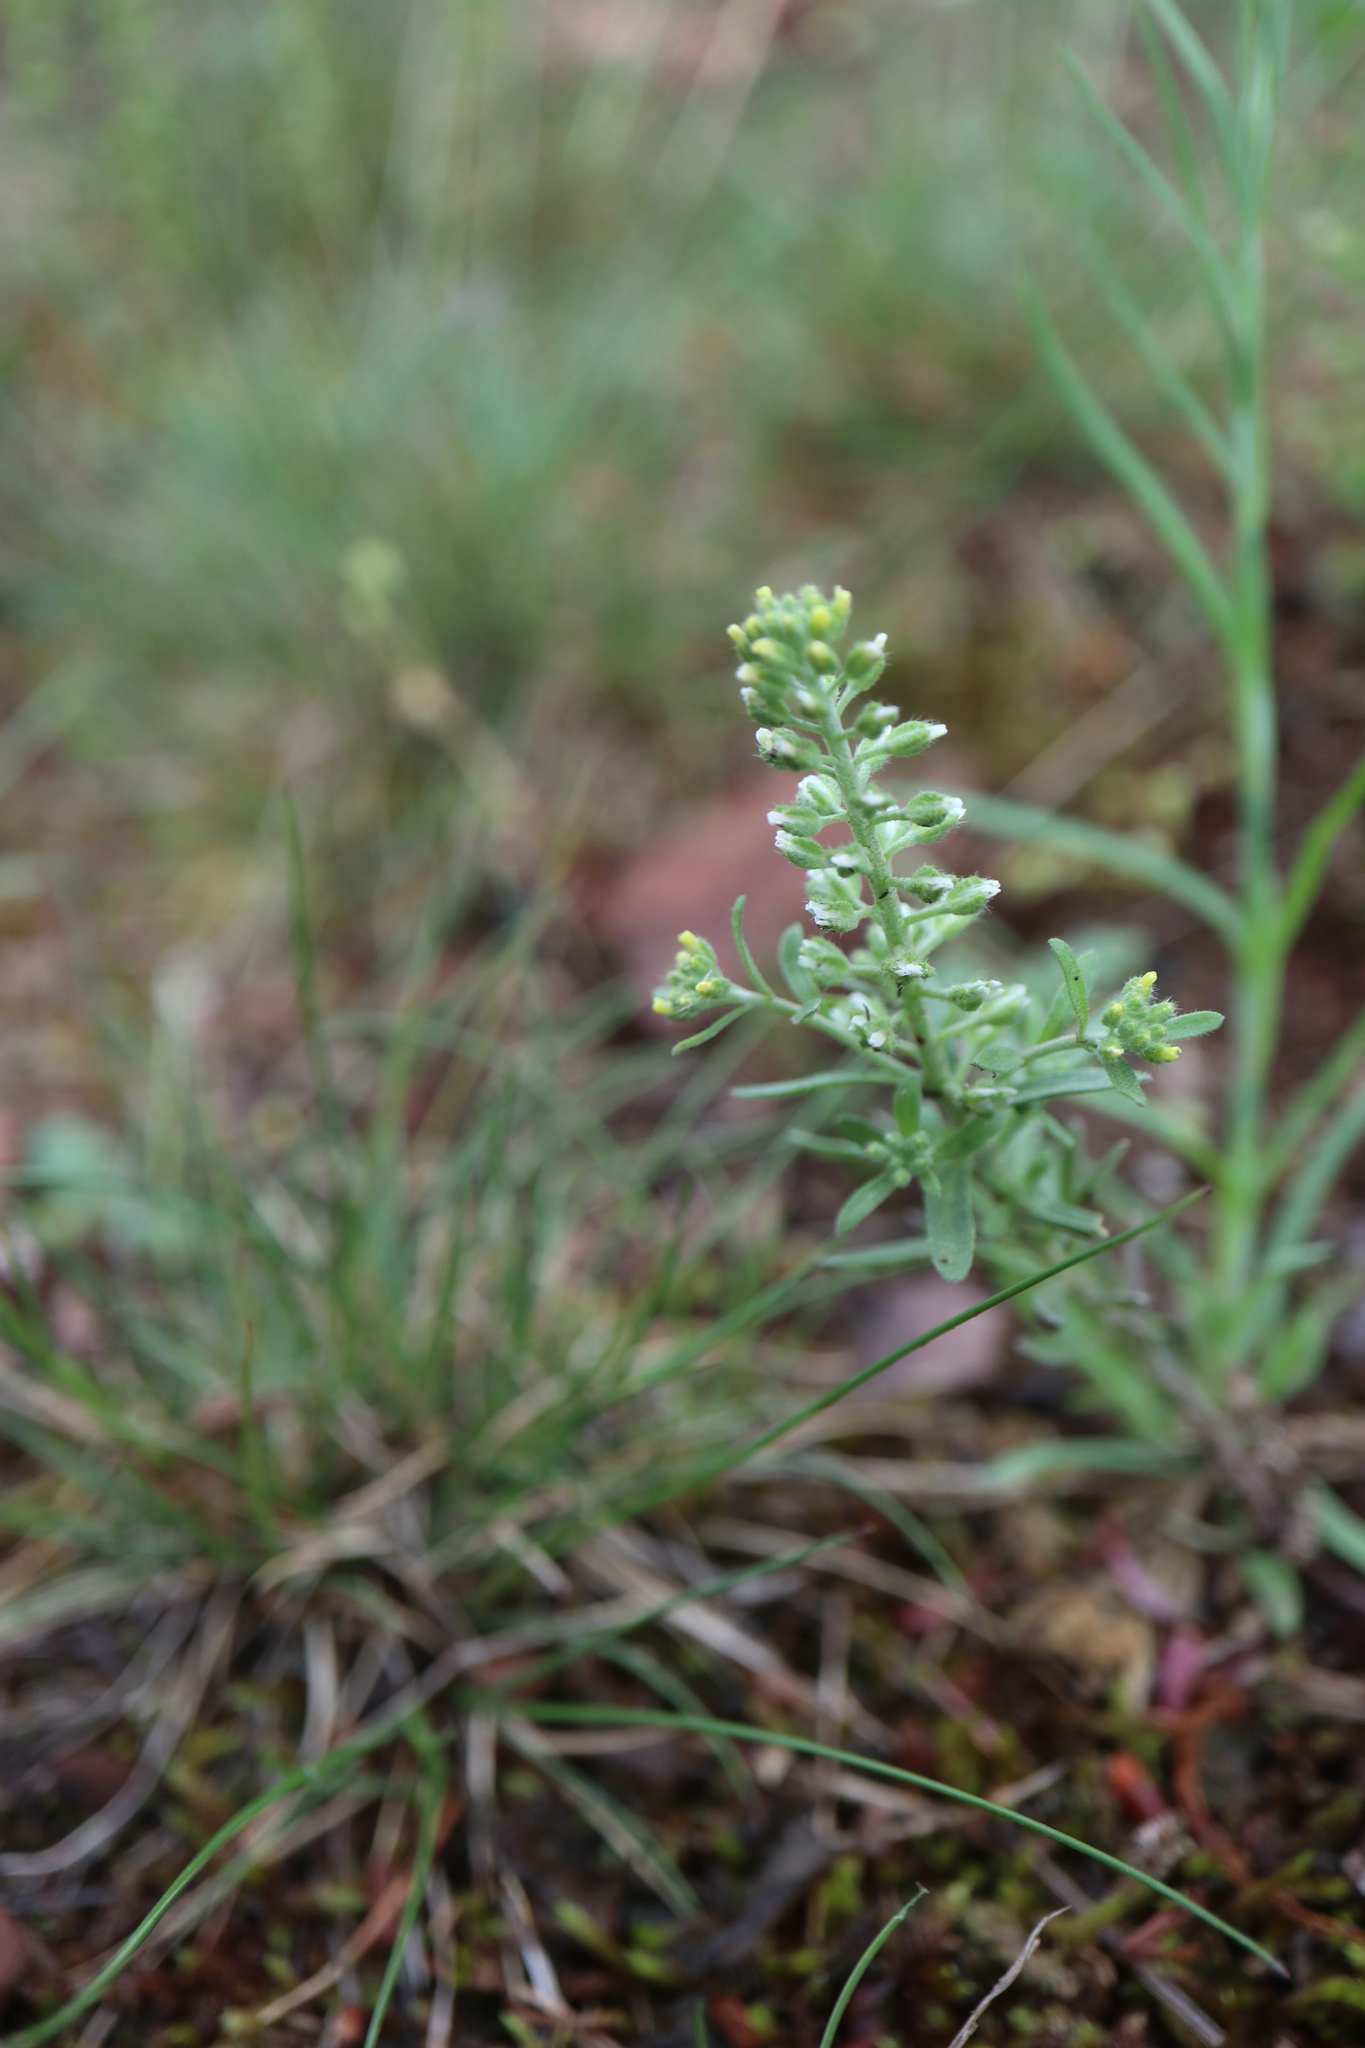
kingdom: Plantae
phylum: Tracheophyta
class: Magnoliopsida
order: Brassicales
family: Brassicaceae
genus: Alyssum
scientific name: Alyssum alyssoides
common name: Small alison
